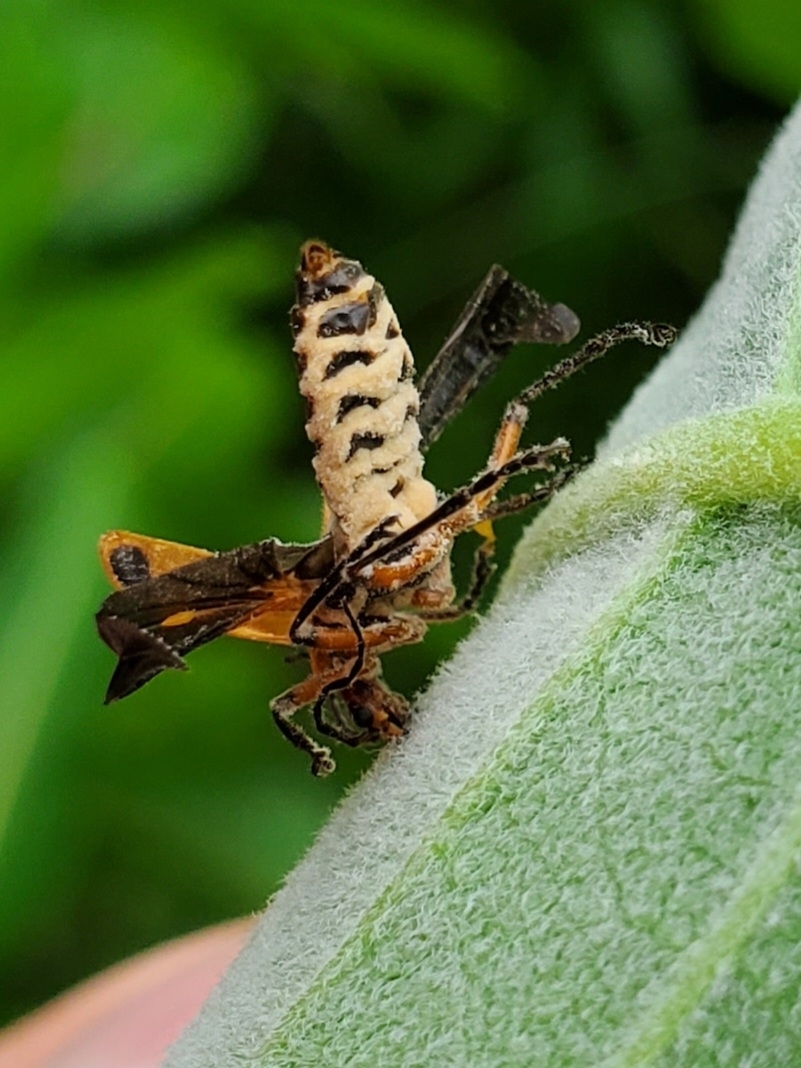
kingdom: Animalia
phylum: Arthropoda
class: Insecta
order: Coleoptera
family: Cantharidae
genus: Chauliognathus
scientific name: Chauliognathus marginatus
